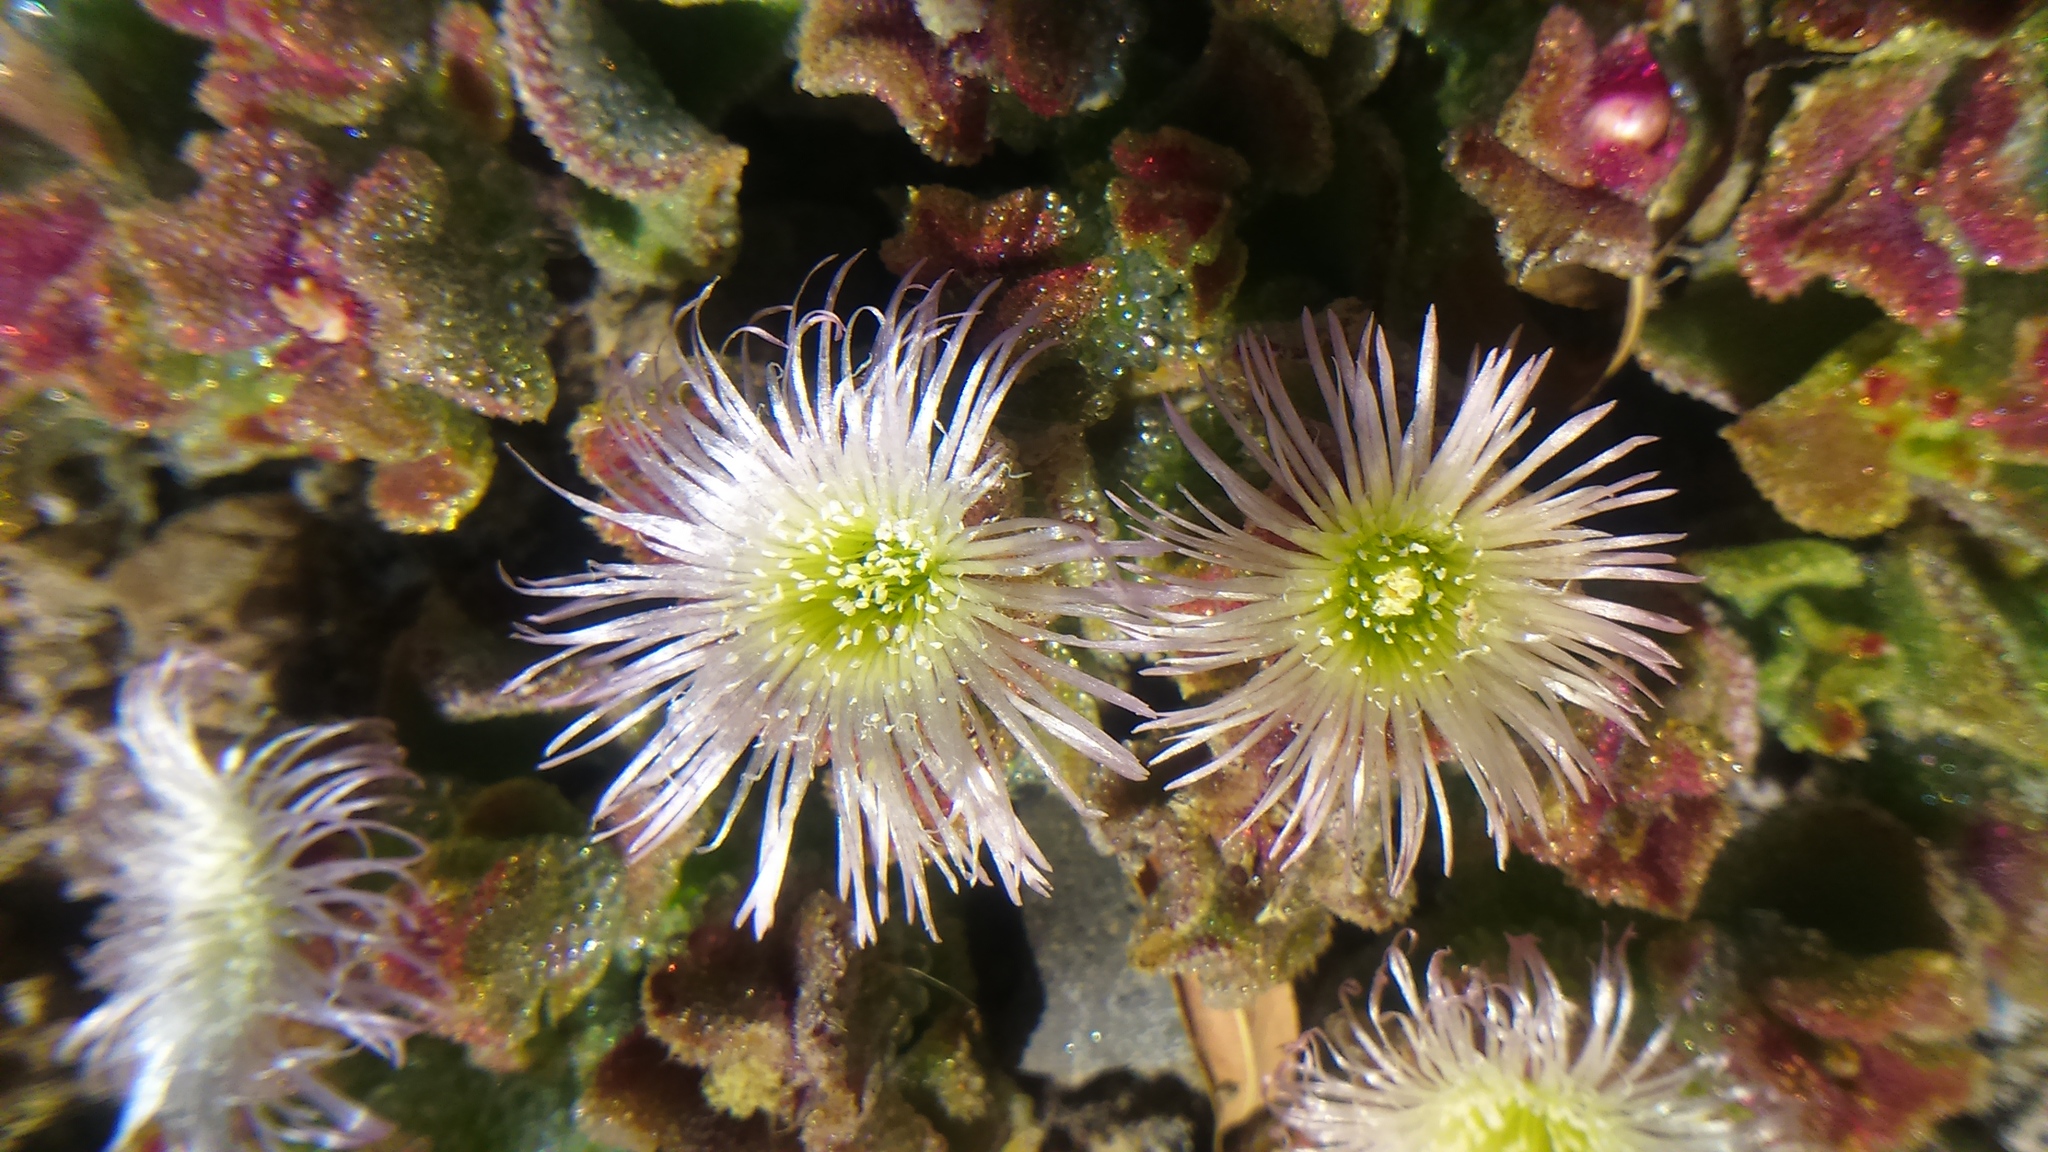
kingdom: Plantae
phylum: Tracheophyta
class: Magnoliopsida
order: Caryophyllales
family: Aizoaceae
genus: Mesembryanthemum
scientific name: Mesembryanthemum crystallinum
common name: Common iceplant
